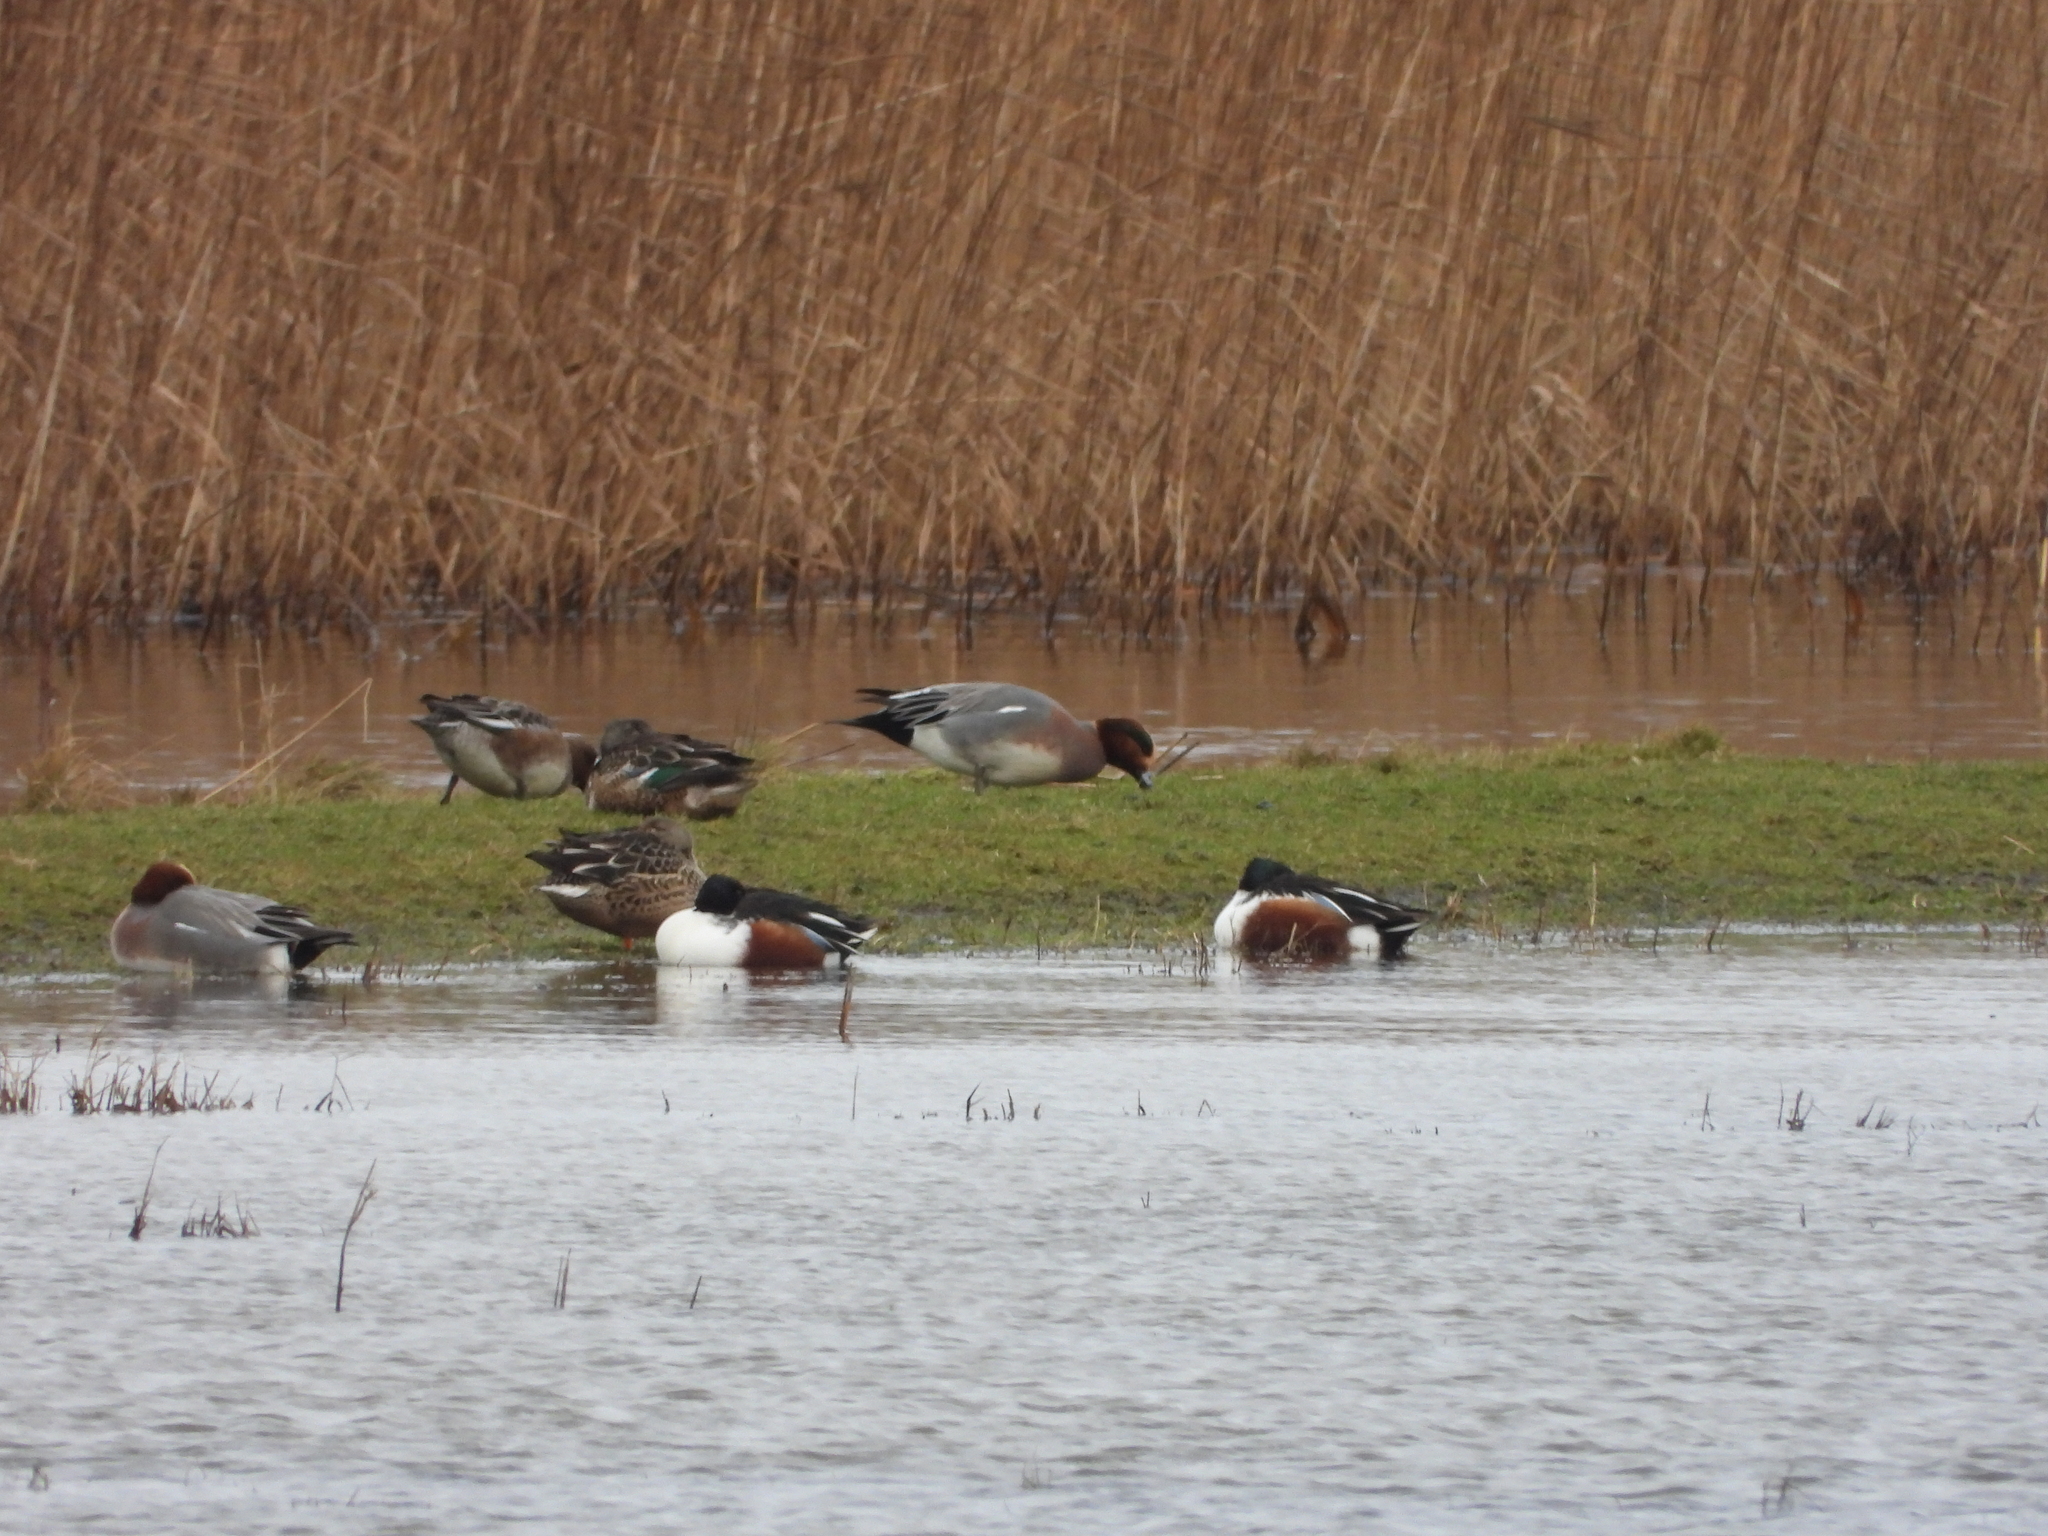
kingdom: Animalia
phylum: Chordata
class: Aves
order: Anseriformes
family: Anatidae
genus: Spatula
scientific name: Spatula clypeata
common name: Northern shoveler
